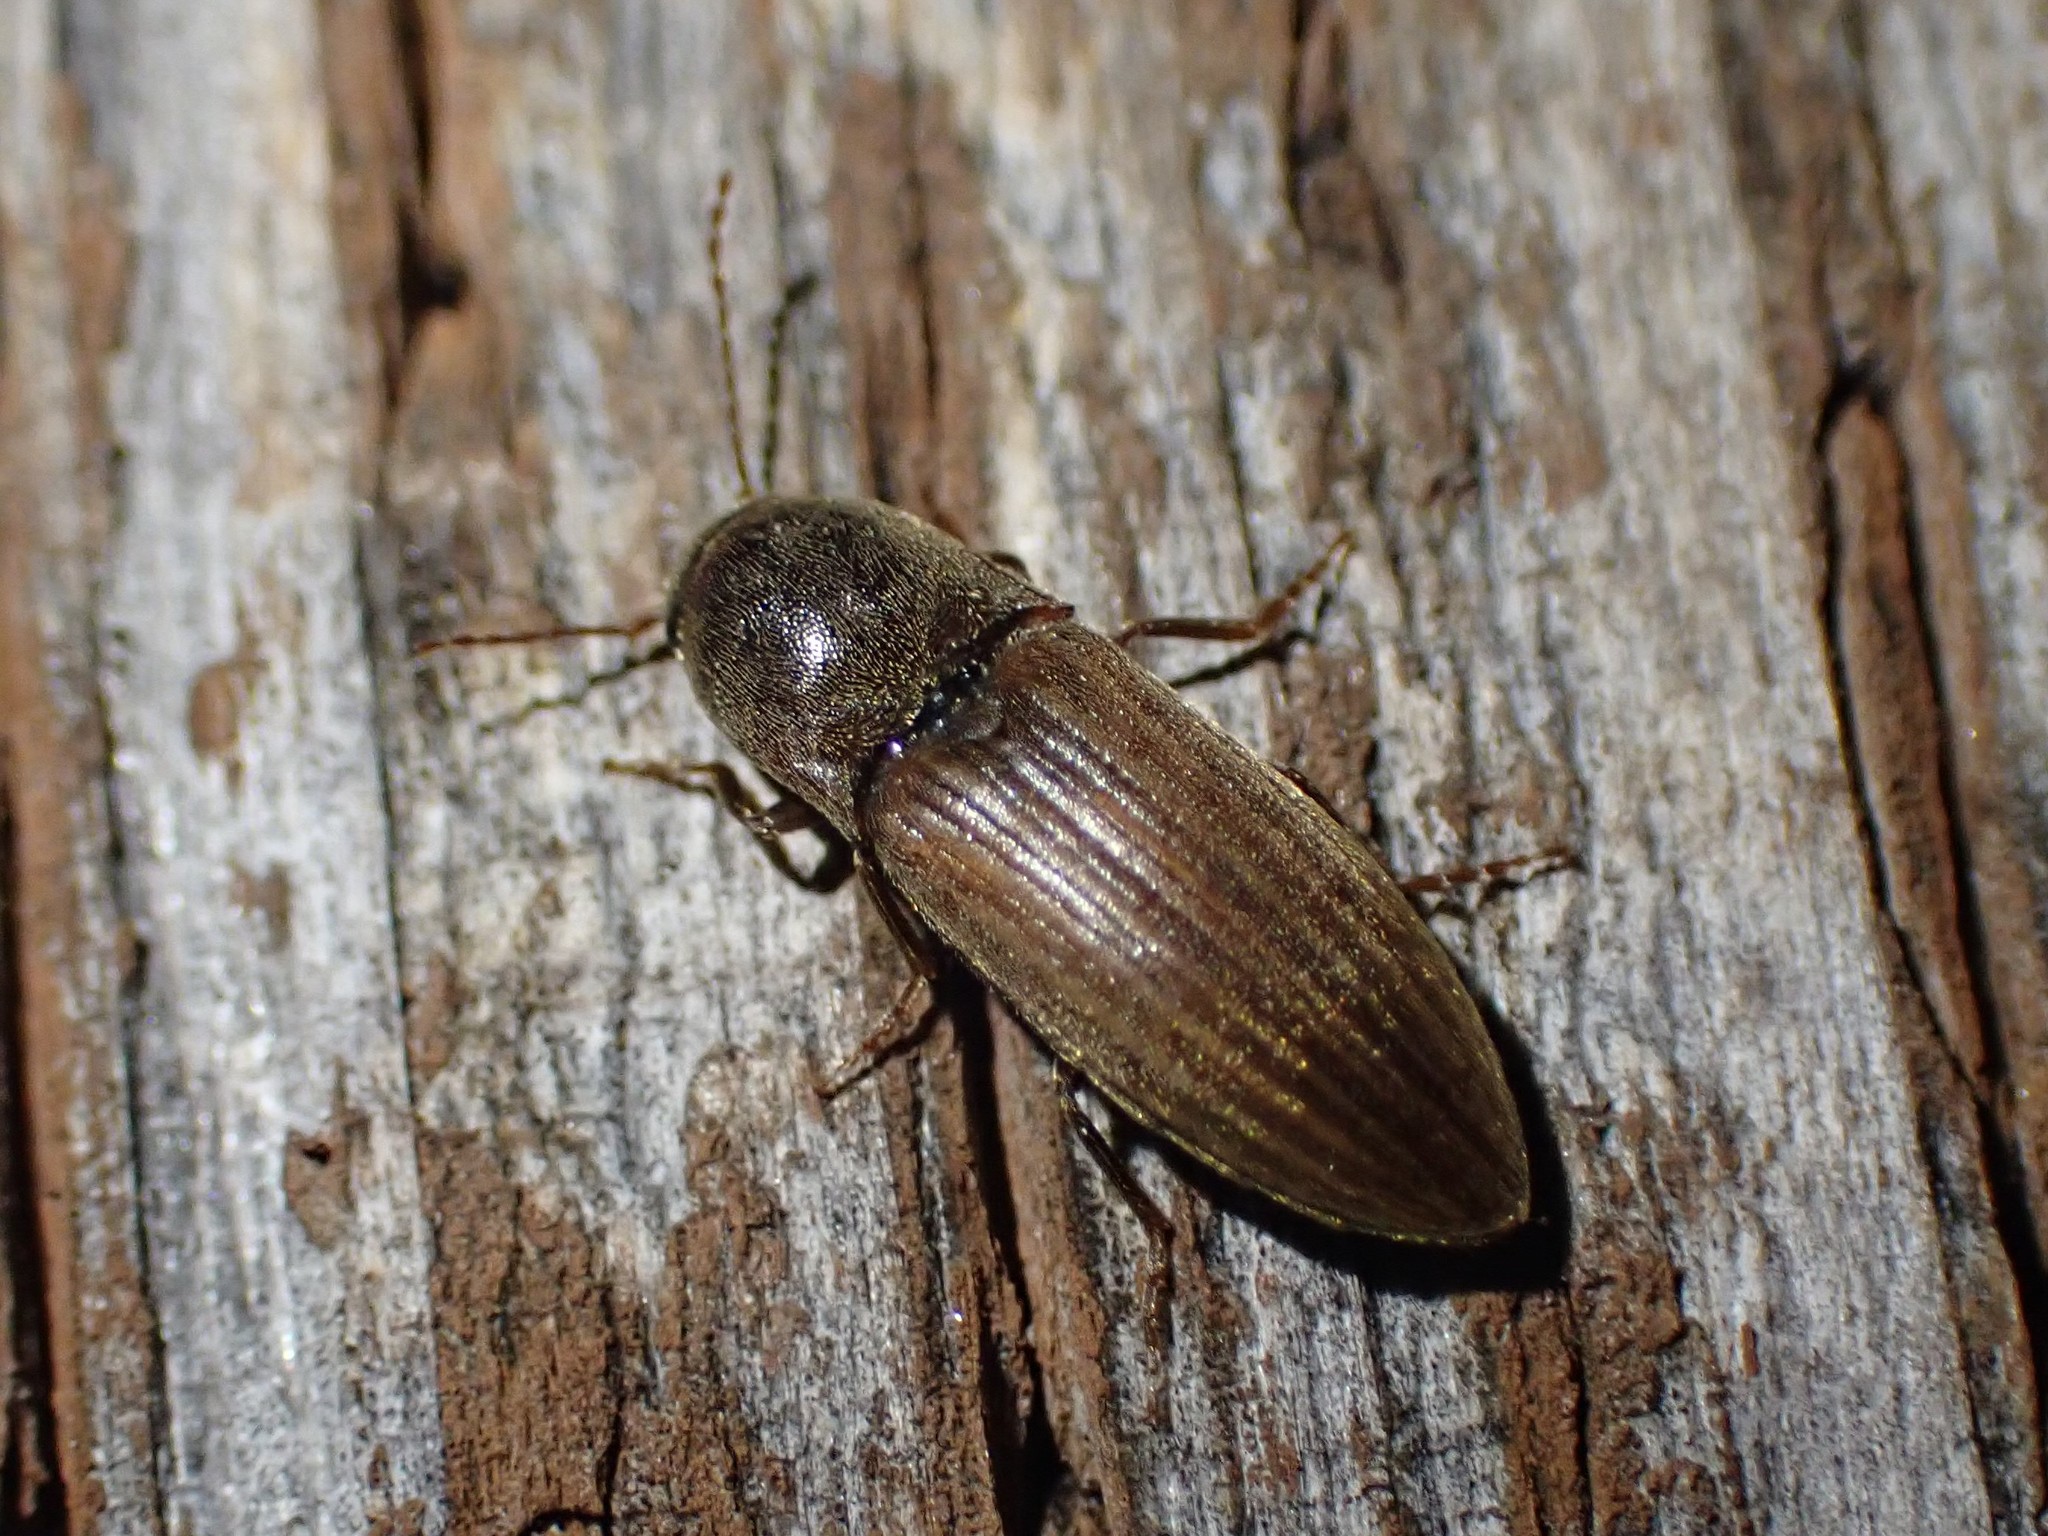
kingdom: Animalia
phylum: Arthropoda
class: Insecta
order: Coleoptera
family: Elateridae
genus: Agriotes
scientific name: Agriotes lineatus
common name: Lined click beetle
